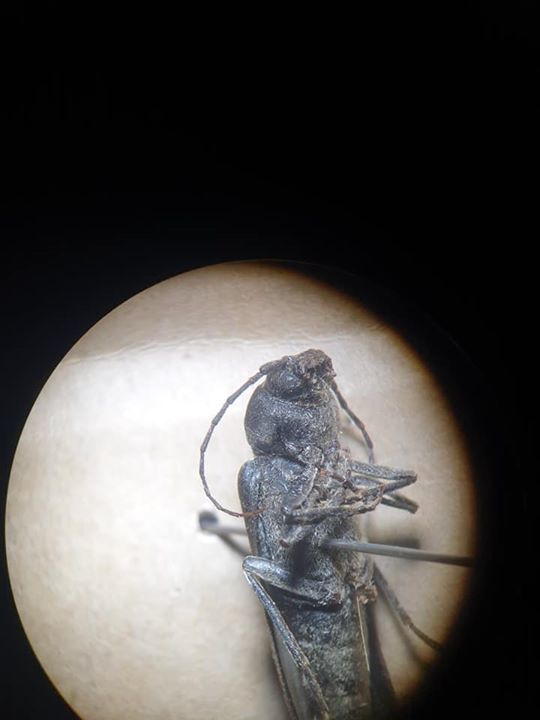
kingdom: Animalia
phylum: Arthropoda
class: Insecta
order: Coleoptera
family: Cerambycidae
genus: Arhopalus
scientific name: Arhopalus ferus
